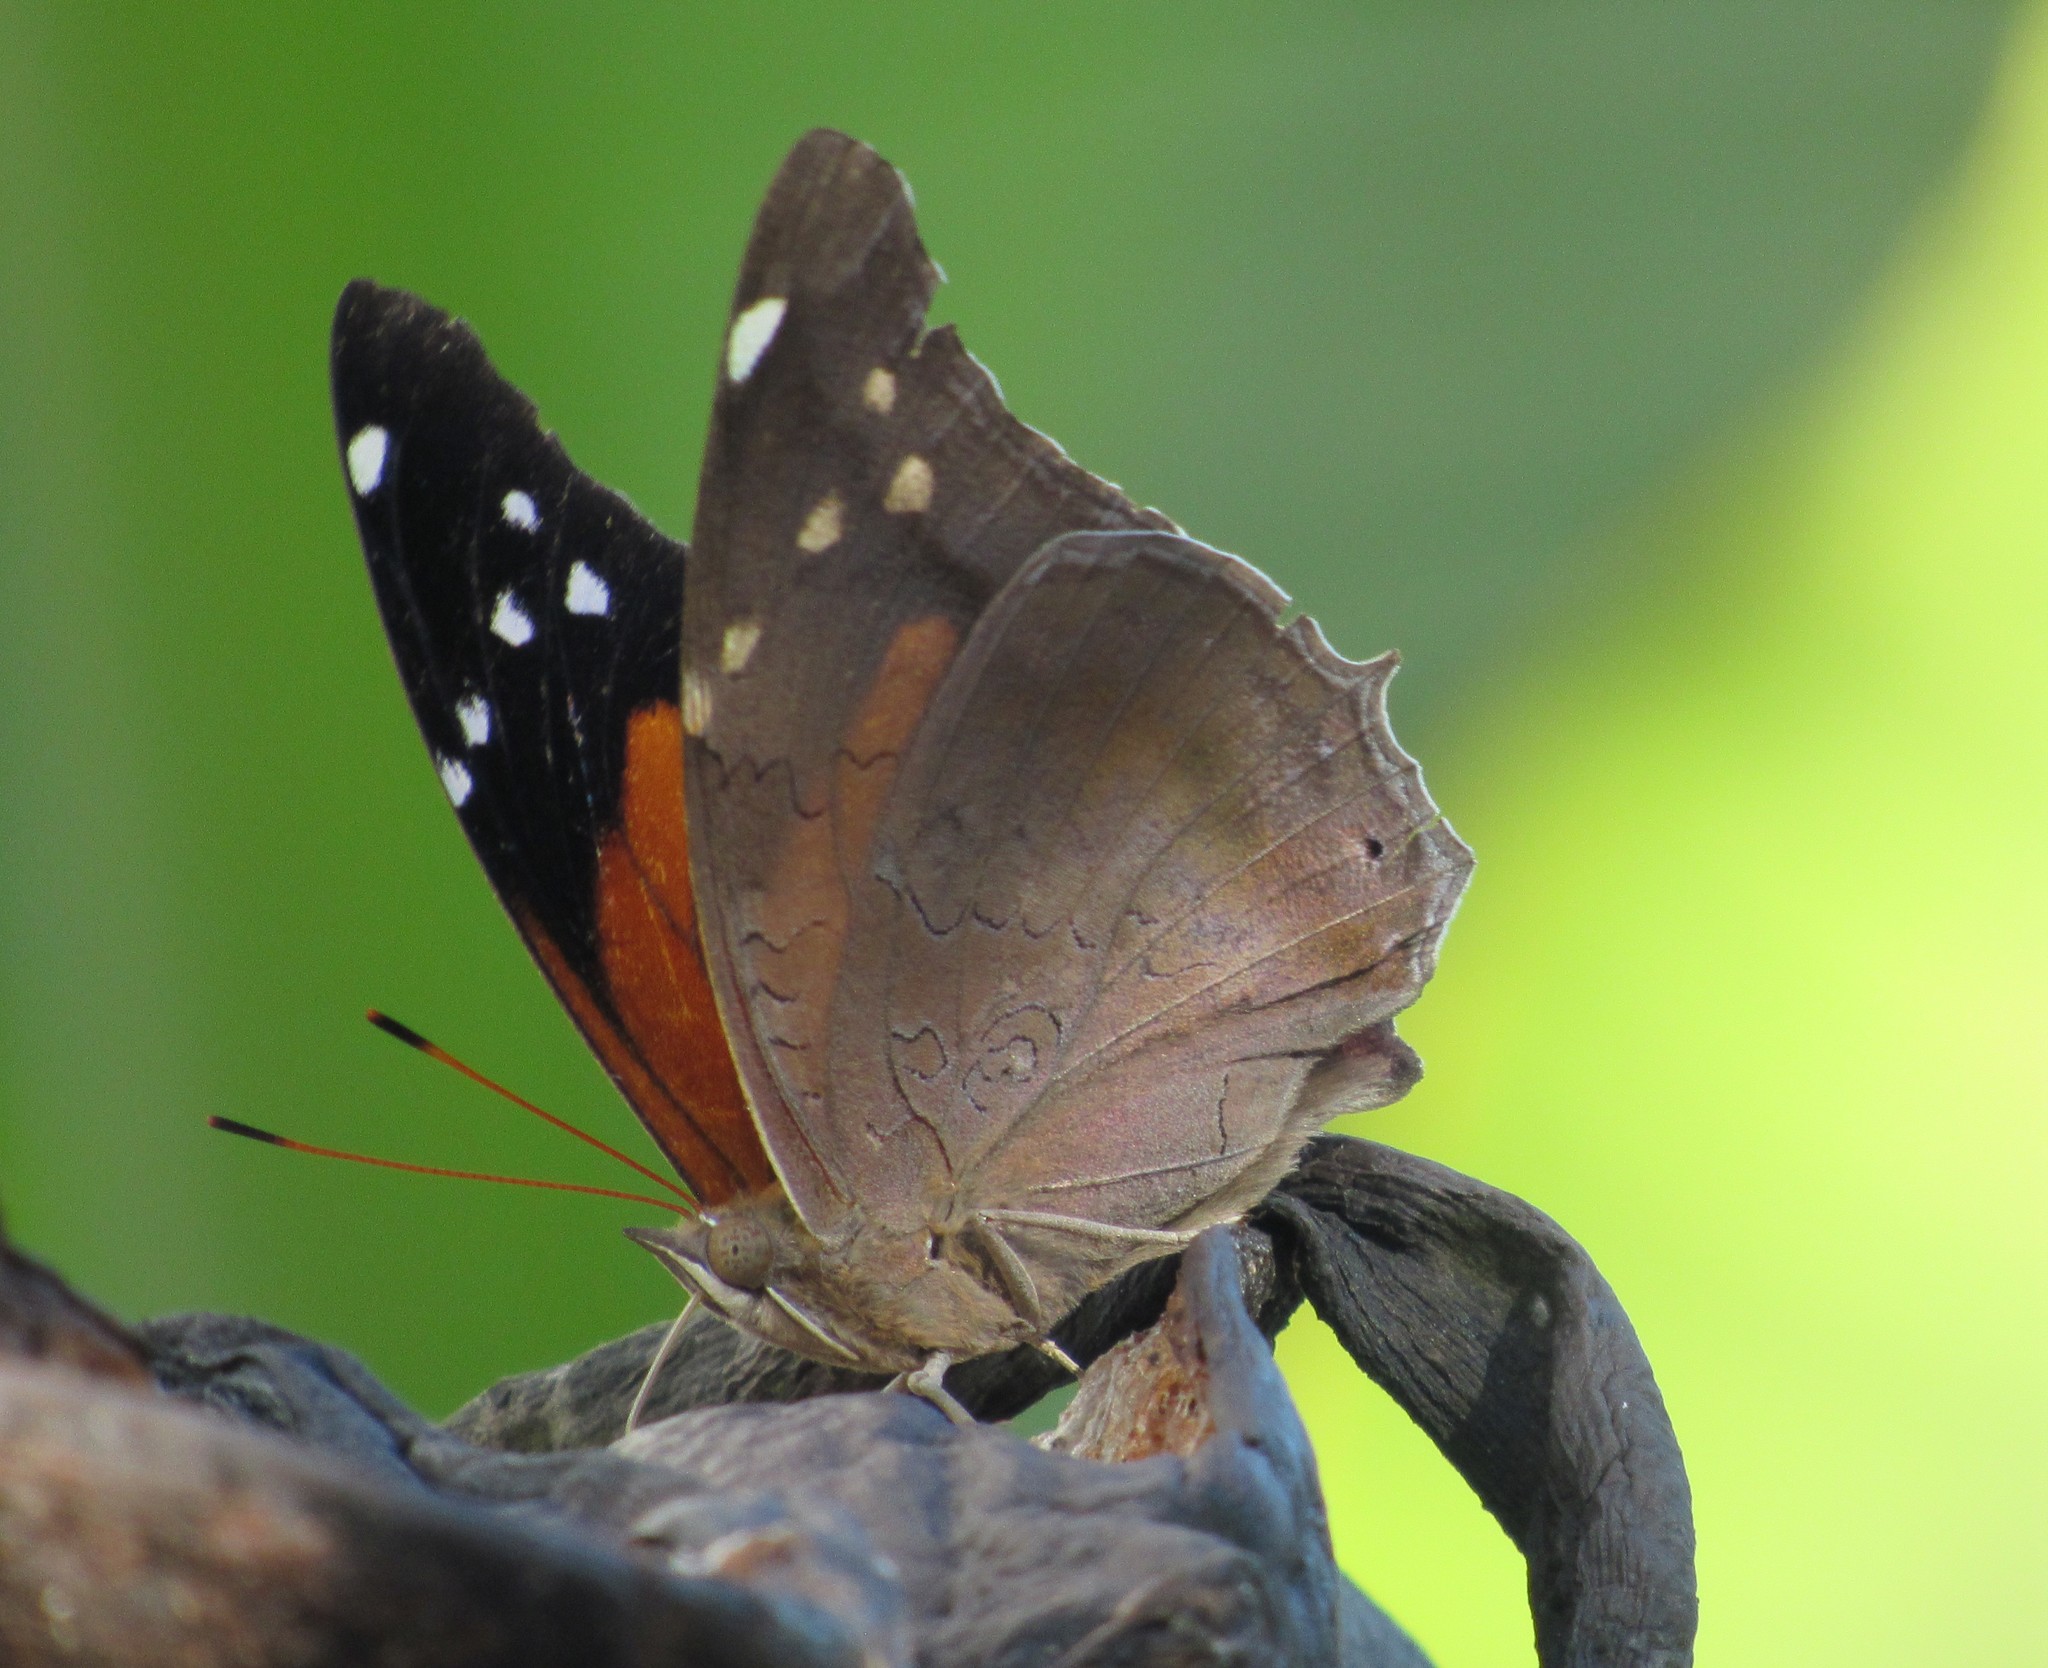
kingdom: Animalia
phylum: Arthropoda
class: Insecta
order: Lepidoptera
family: Nymphalidae
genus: Coea
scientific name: Coea acheronta
